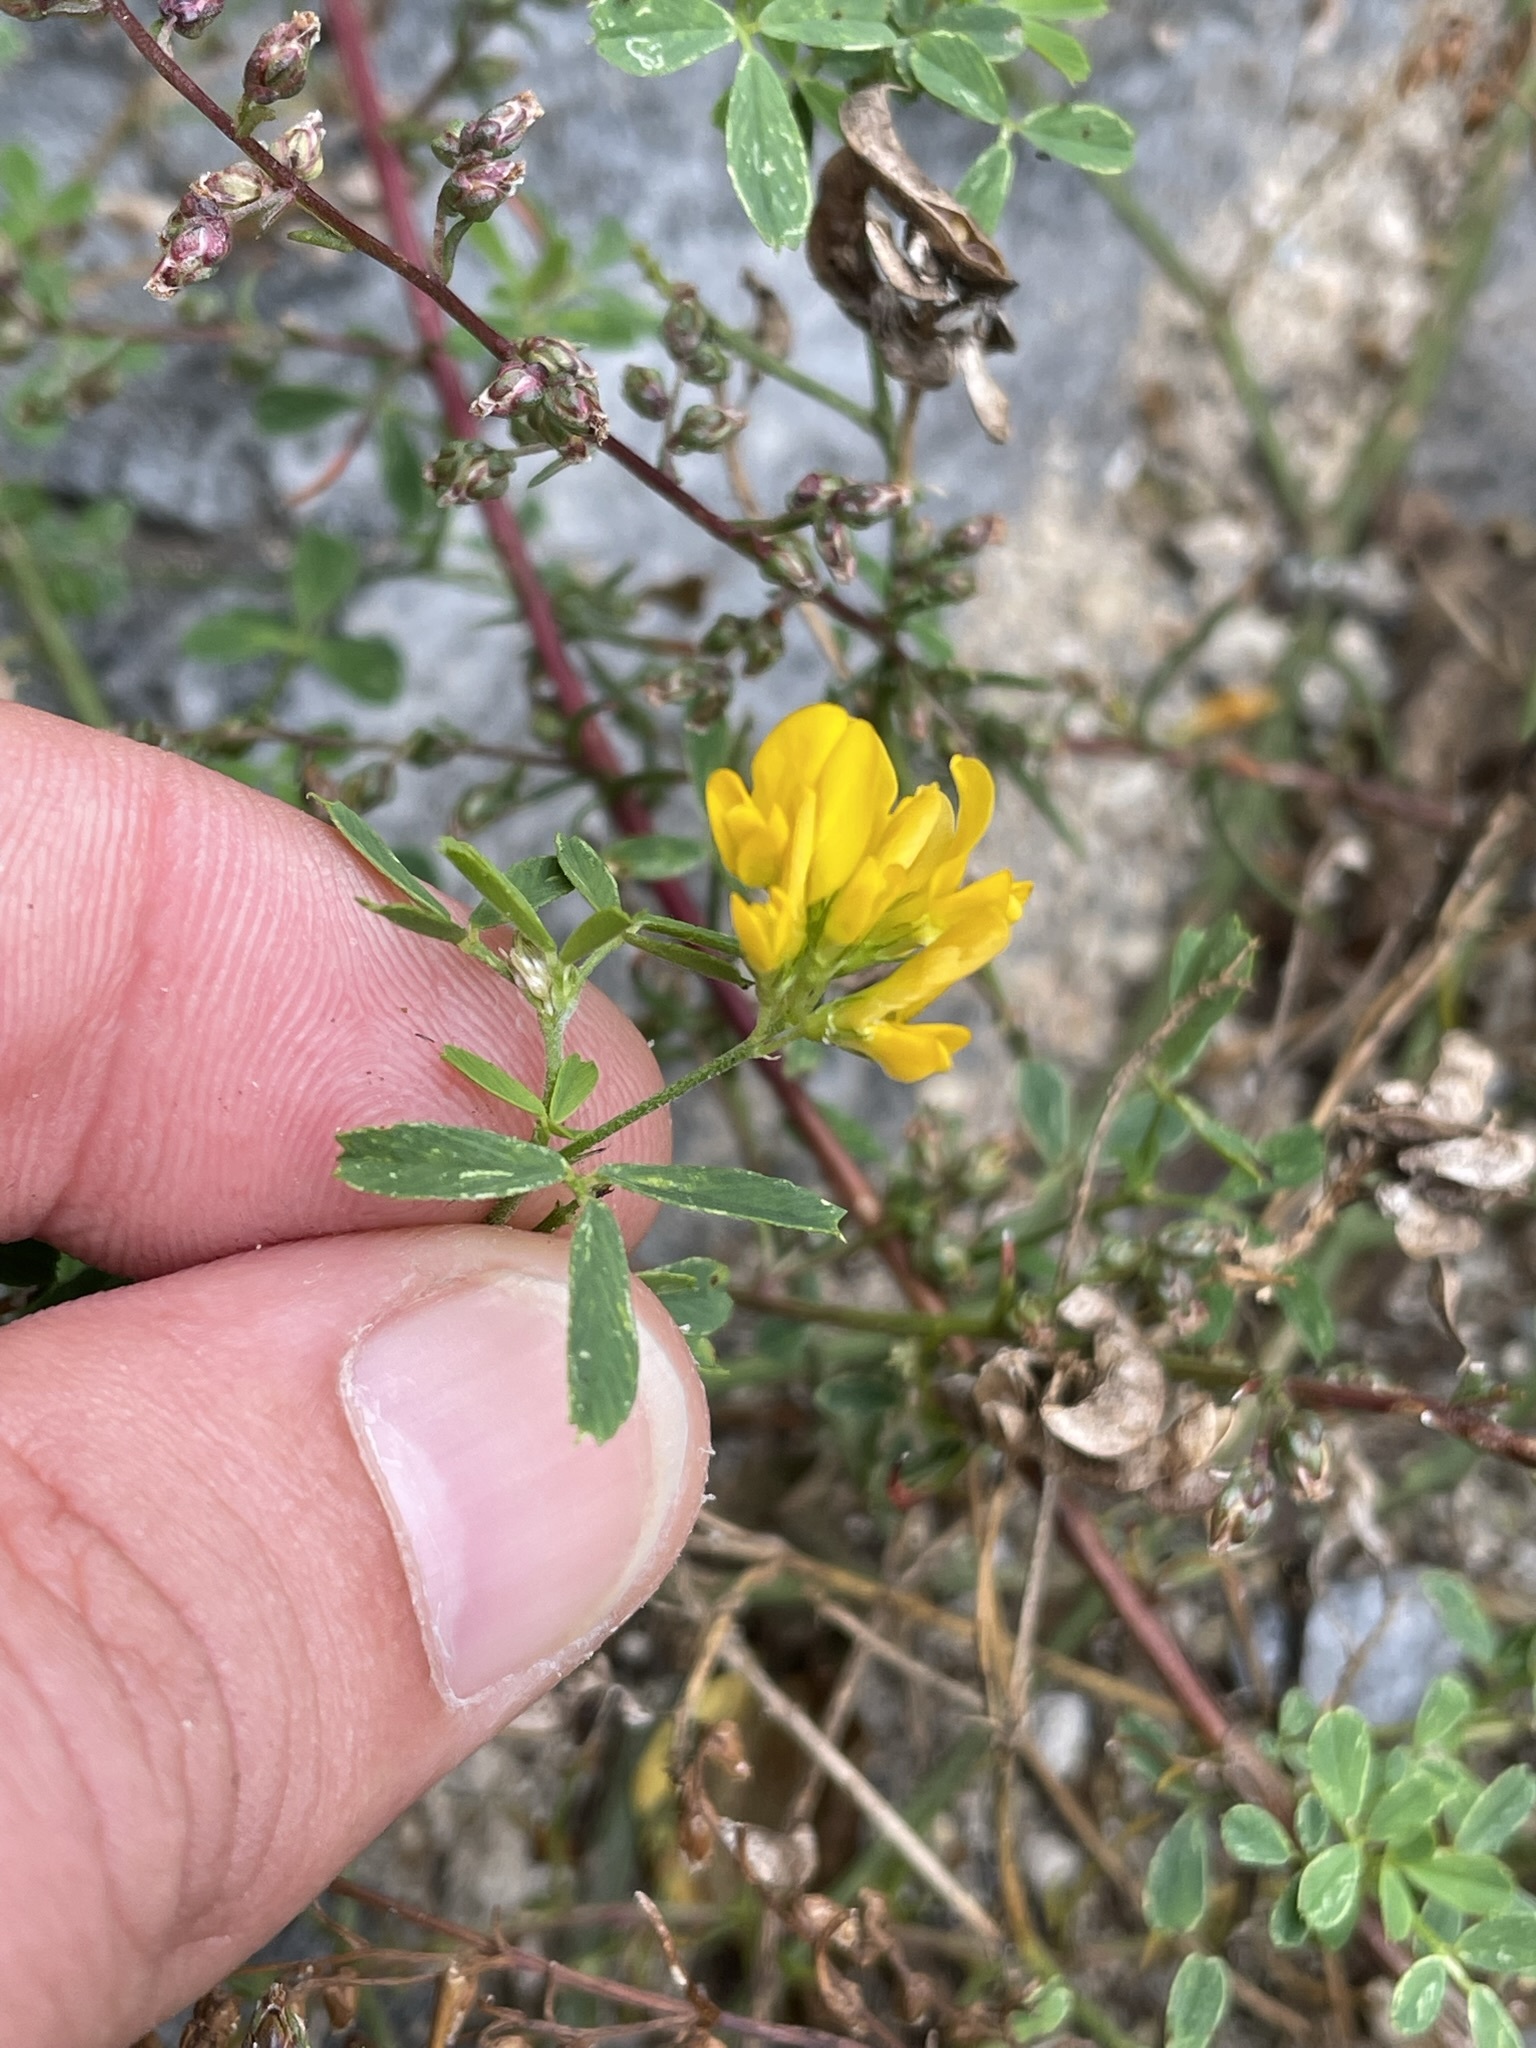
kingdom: Plantae
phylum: Tracheophyta
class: Magnoliopsida
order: Fabales
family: Fabaceae
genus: Medicago
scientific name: Medicago falcata
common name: Sickle medick
